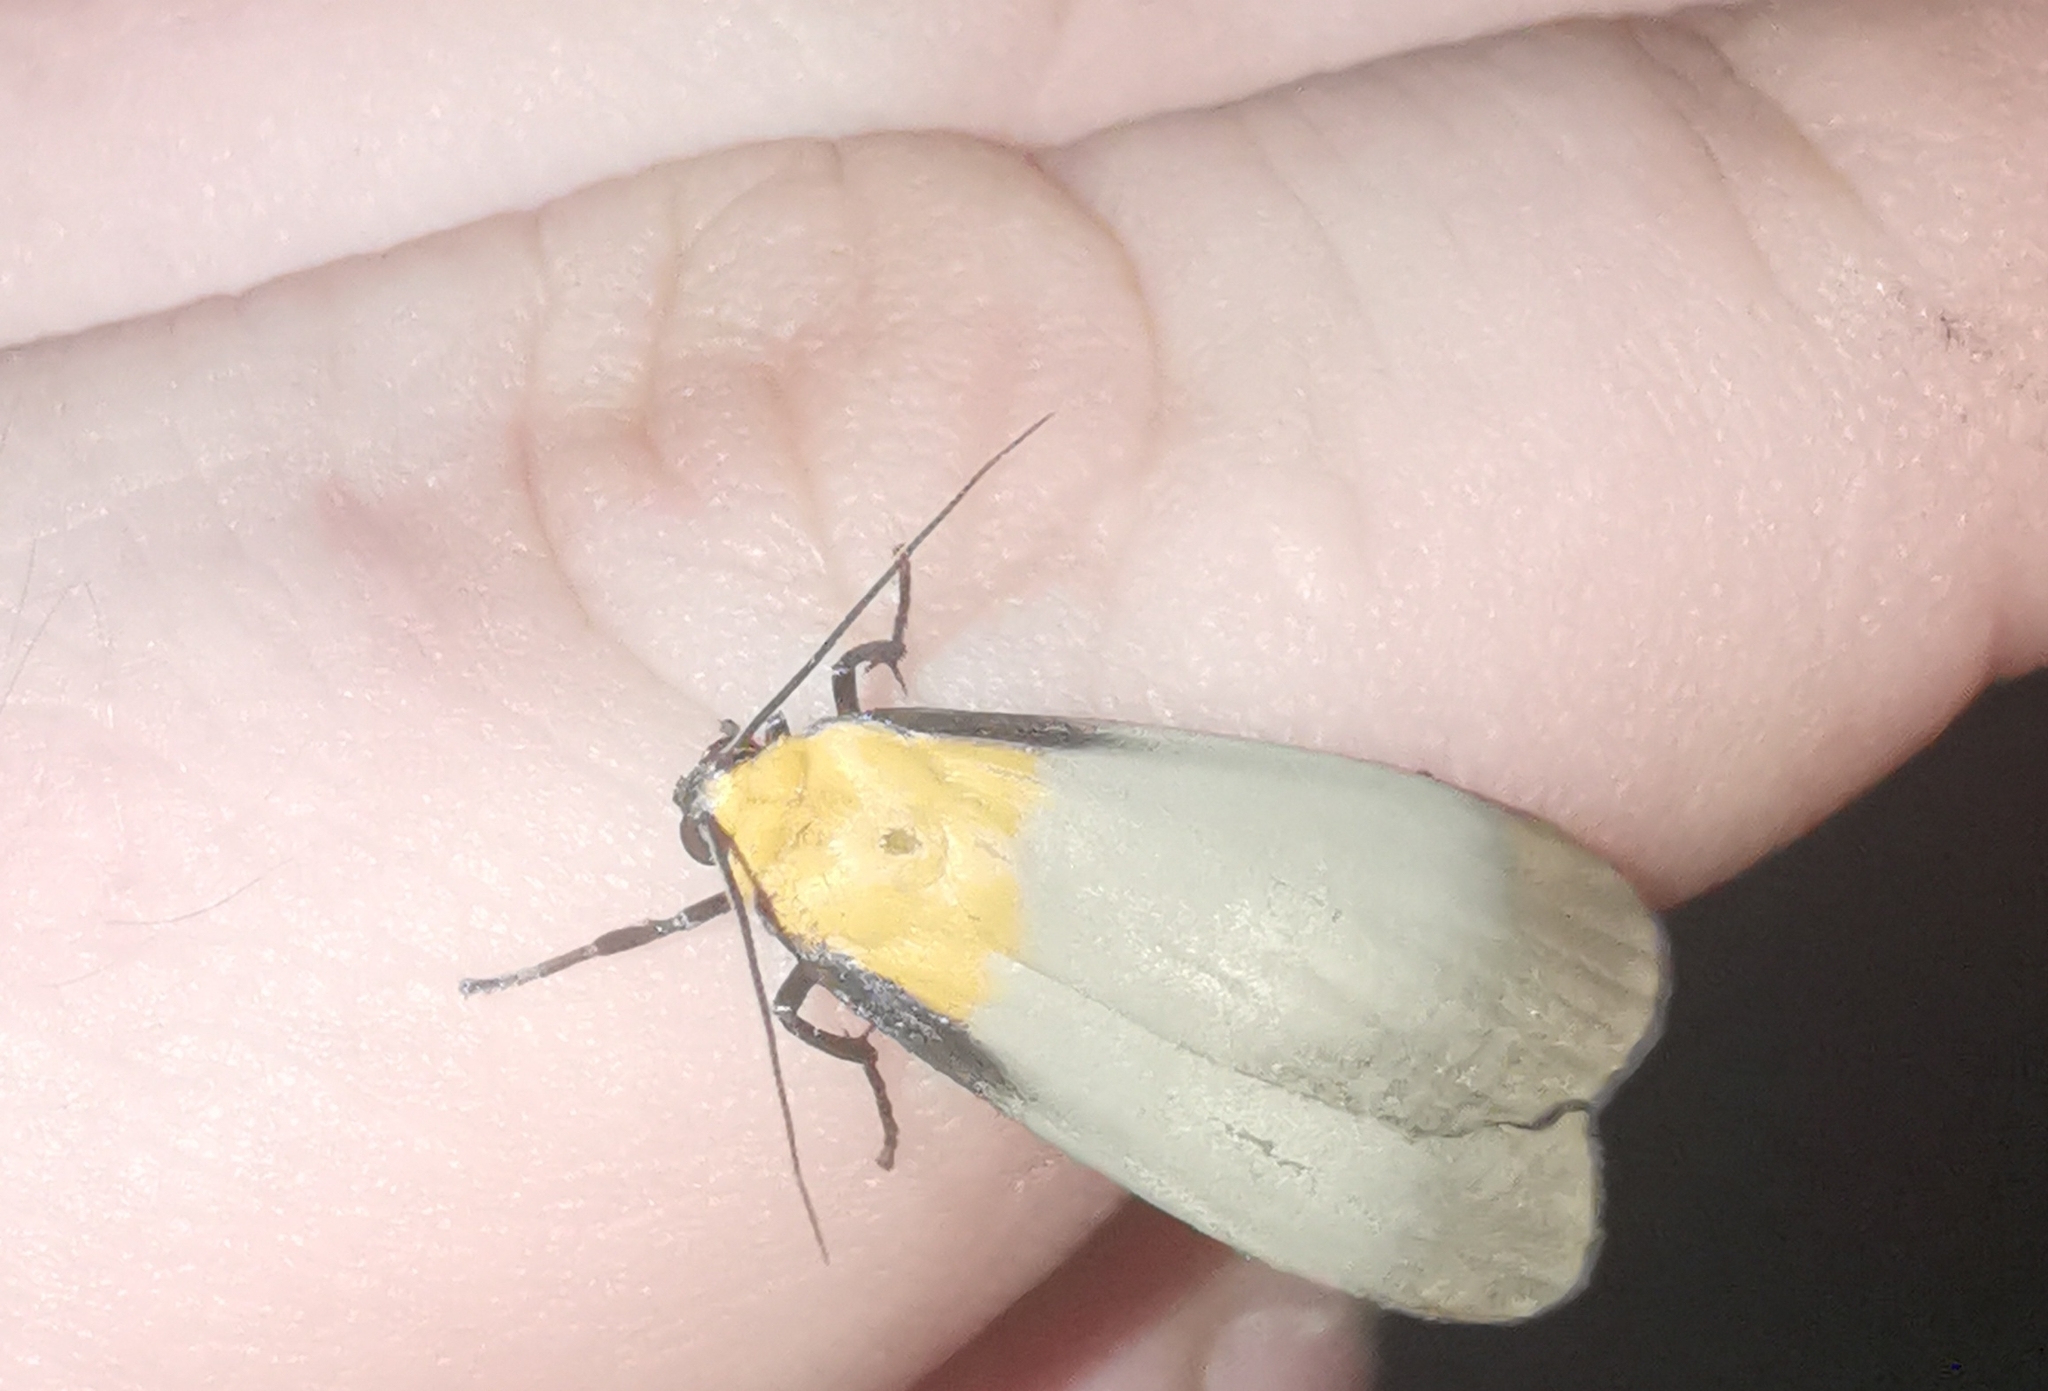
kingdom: Animalia
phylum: Arthropoda
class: Insecta
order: Lepidoptera
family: Erebidae
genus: Lithosia
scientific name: Lithosia quadra
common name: Four-spotted footman
